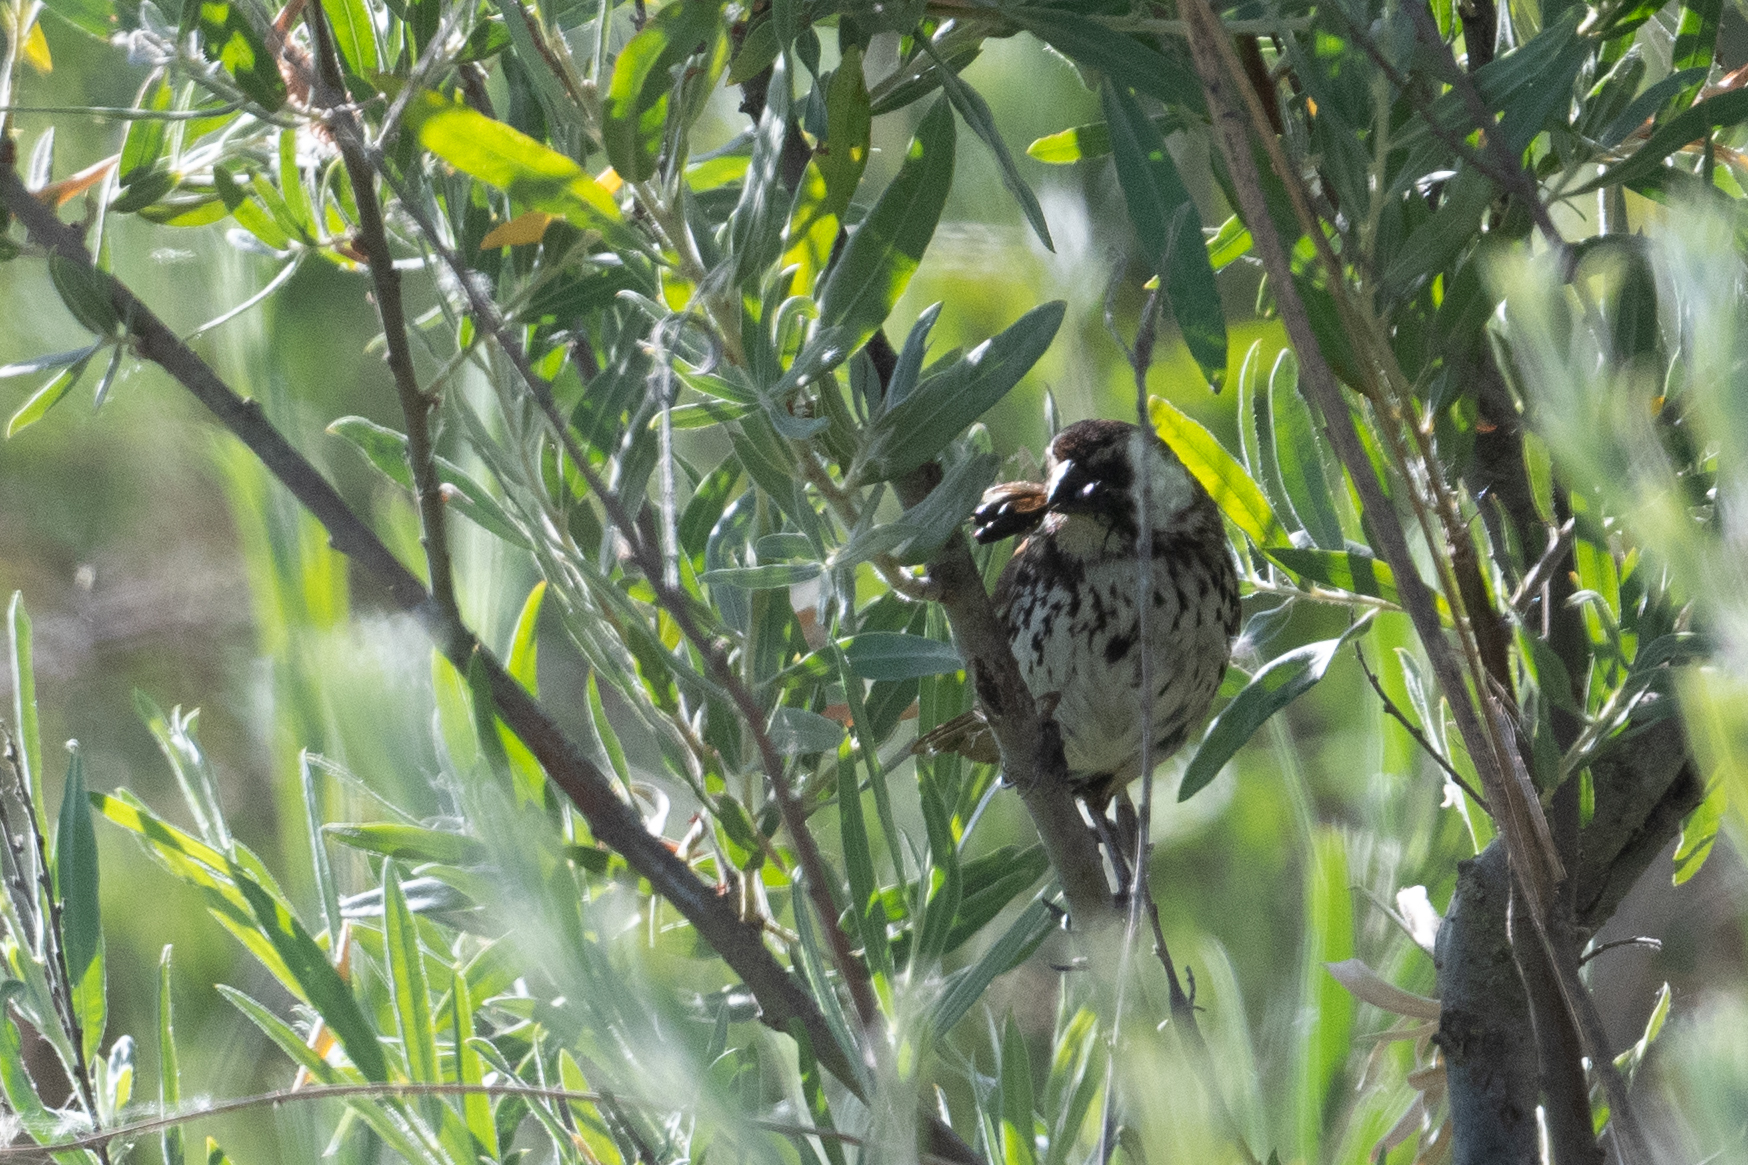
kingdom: Animalia
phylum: Chordata
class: Aves
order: Passeriformes
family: Passerellidae
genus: Melospiza
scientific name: Melospiza melodia
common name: Song sparrow
